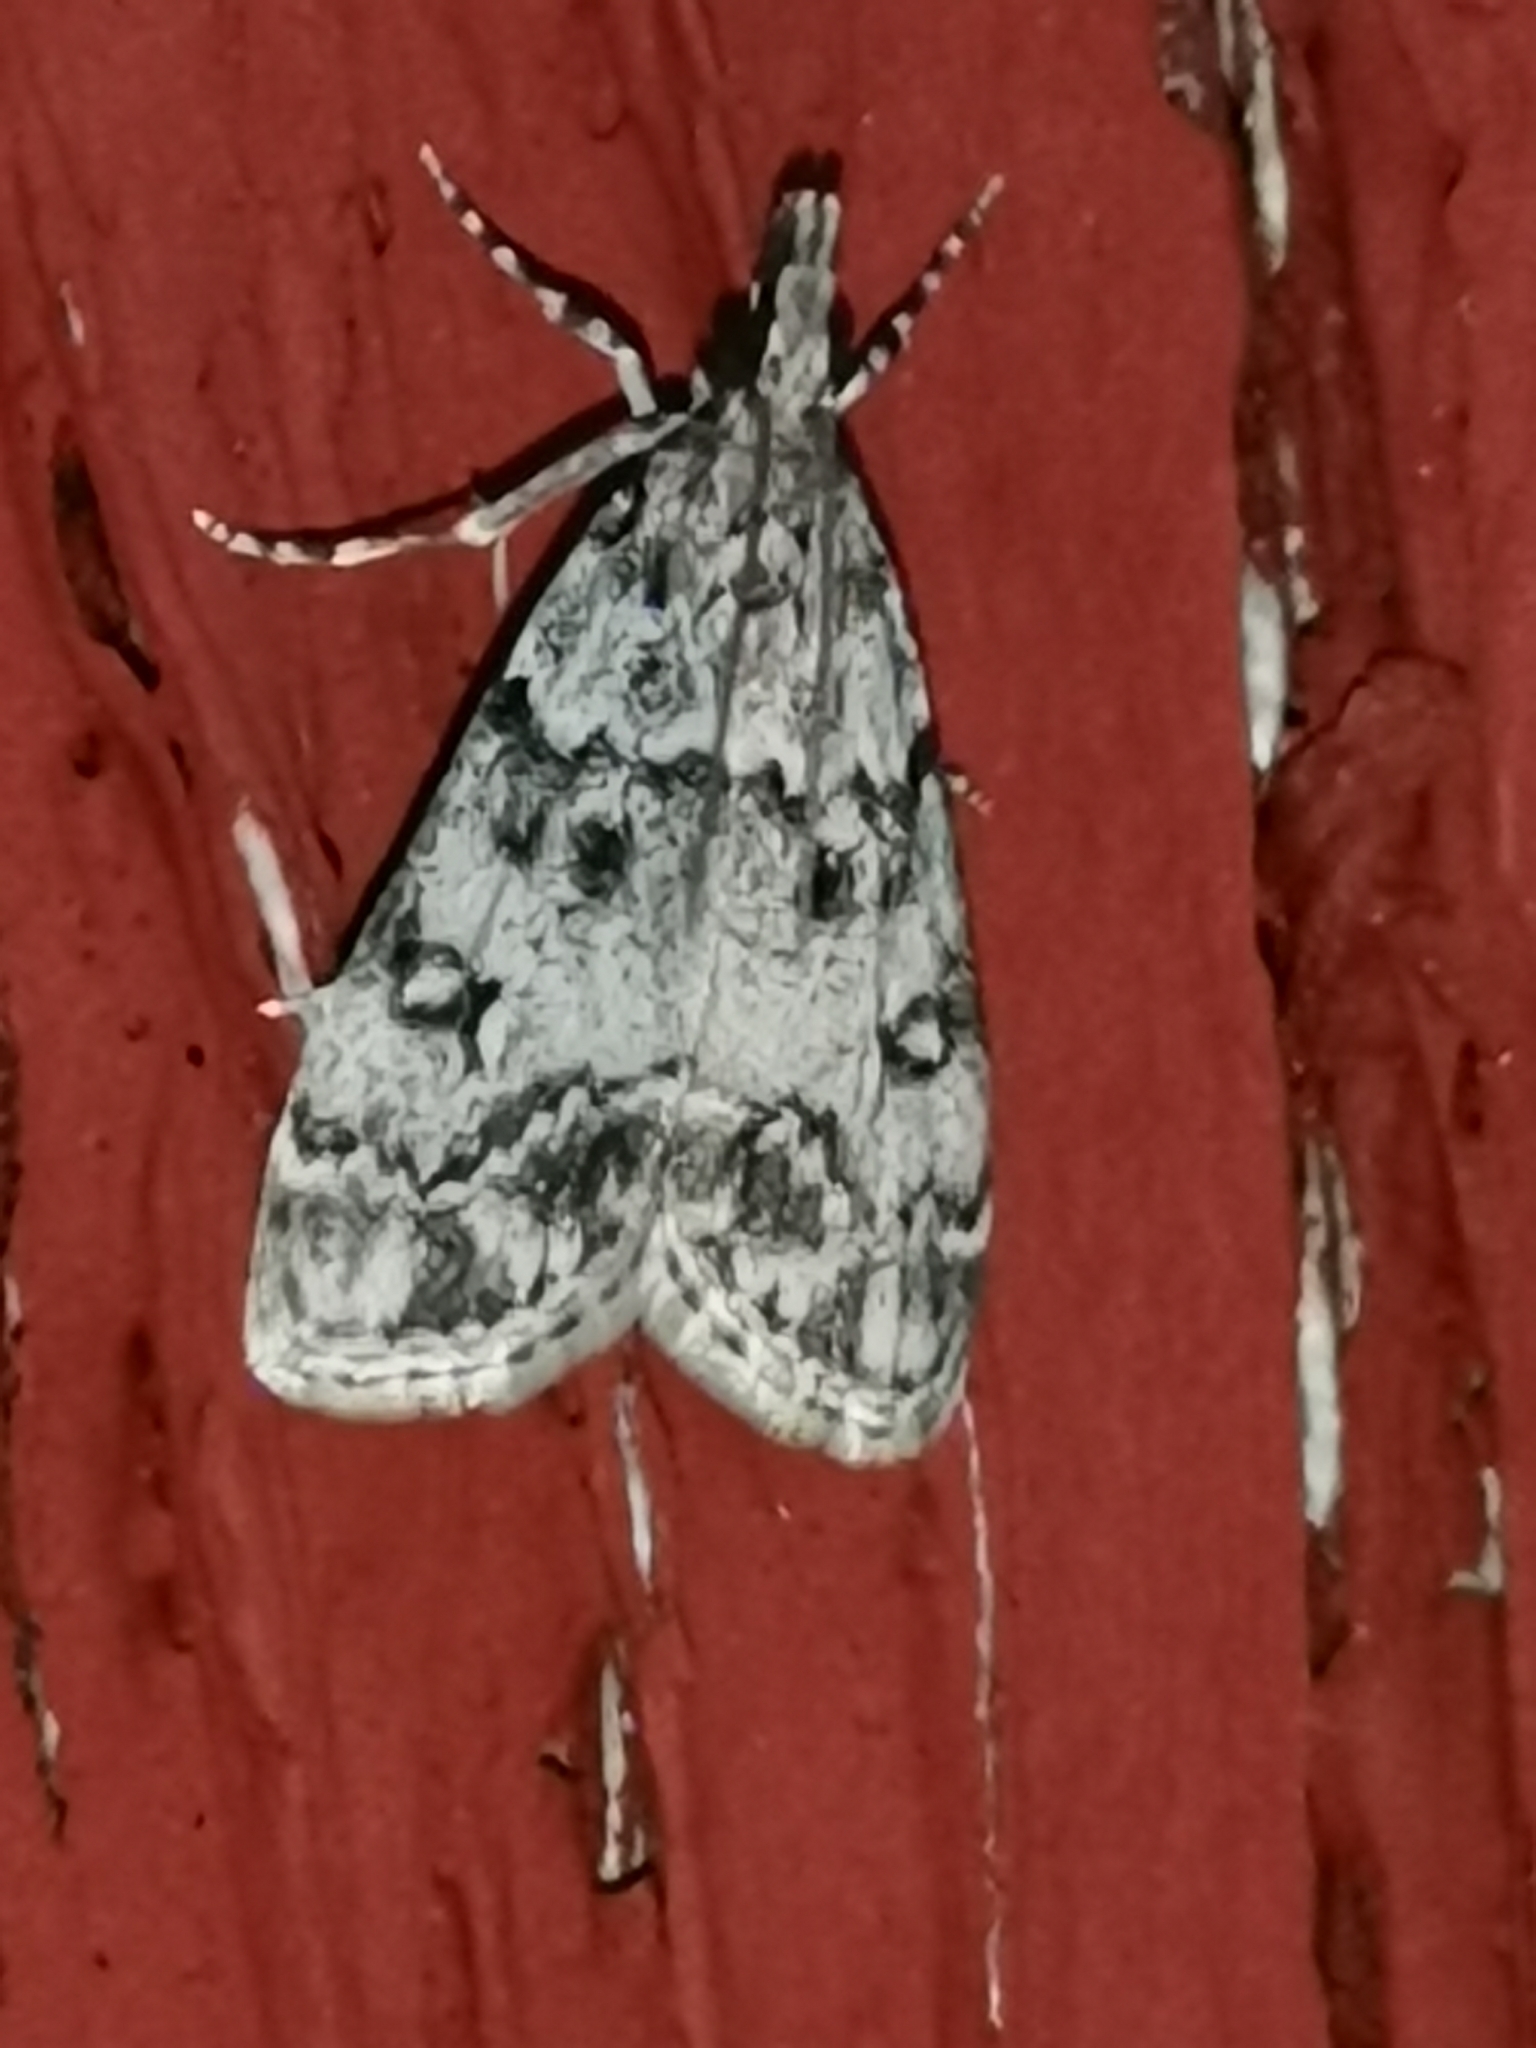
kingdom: Animalia
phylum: Arthropoda
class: Insecta
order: Lepidoptera
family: Crambidae
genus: Eudonia
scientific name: Eudonia lacustrata
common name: Little grey
